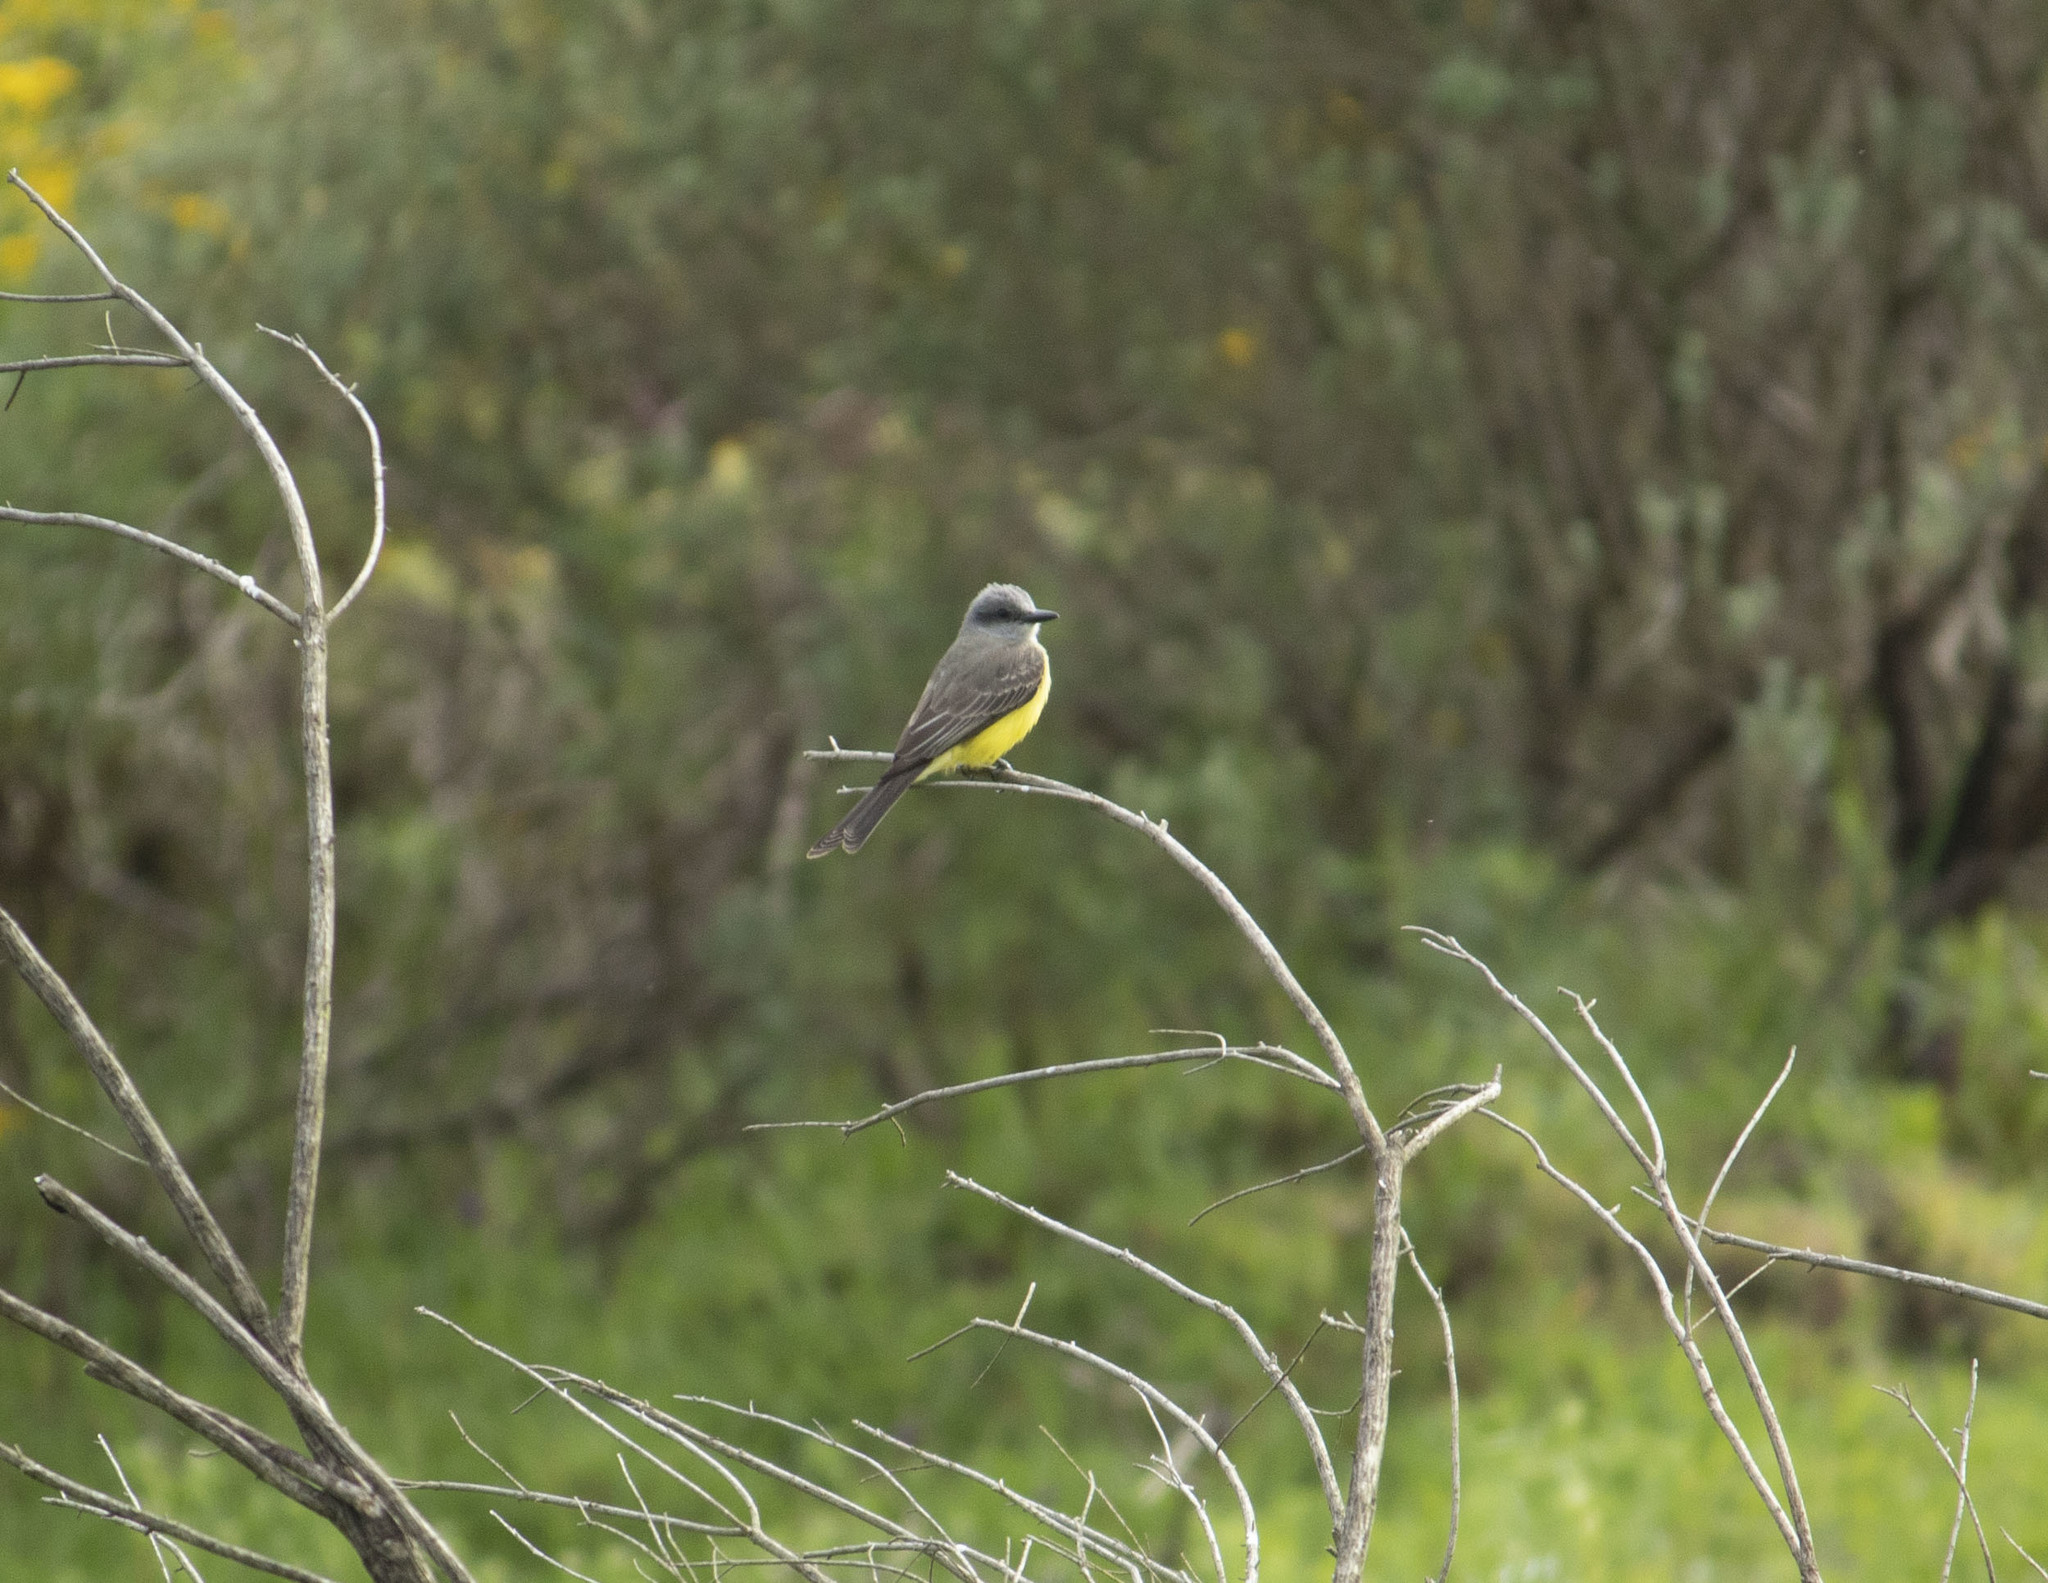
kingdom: Animalia
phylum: Chordata
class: Aves
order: Passeriformes
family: Tyrannidae
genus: Tyrannus
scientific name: Tyrannus melancholicus
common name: Tropical kingbird
